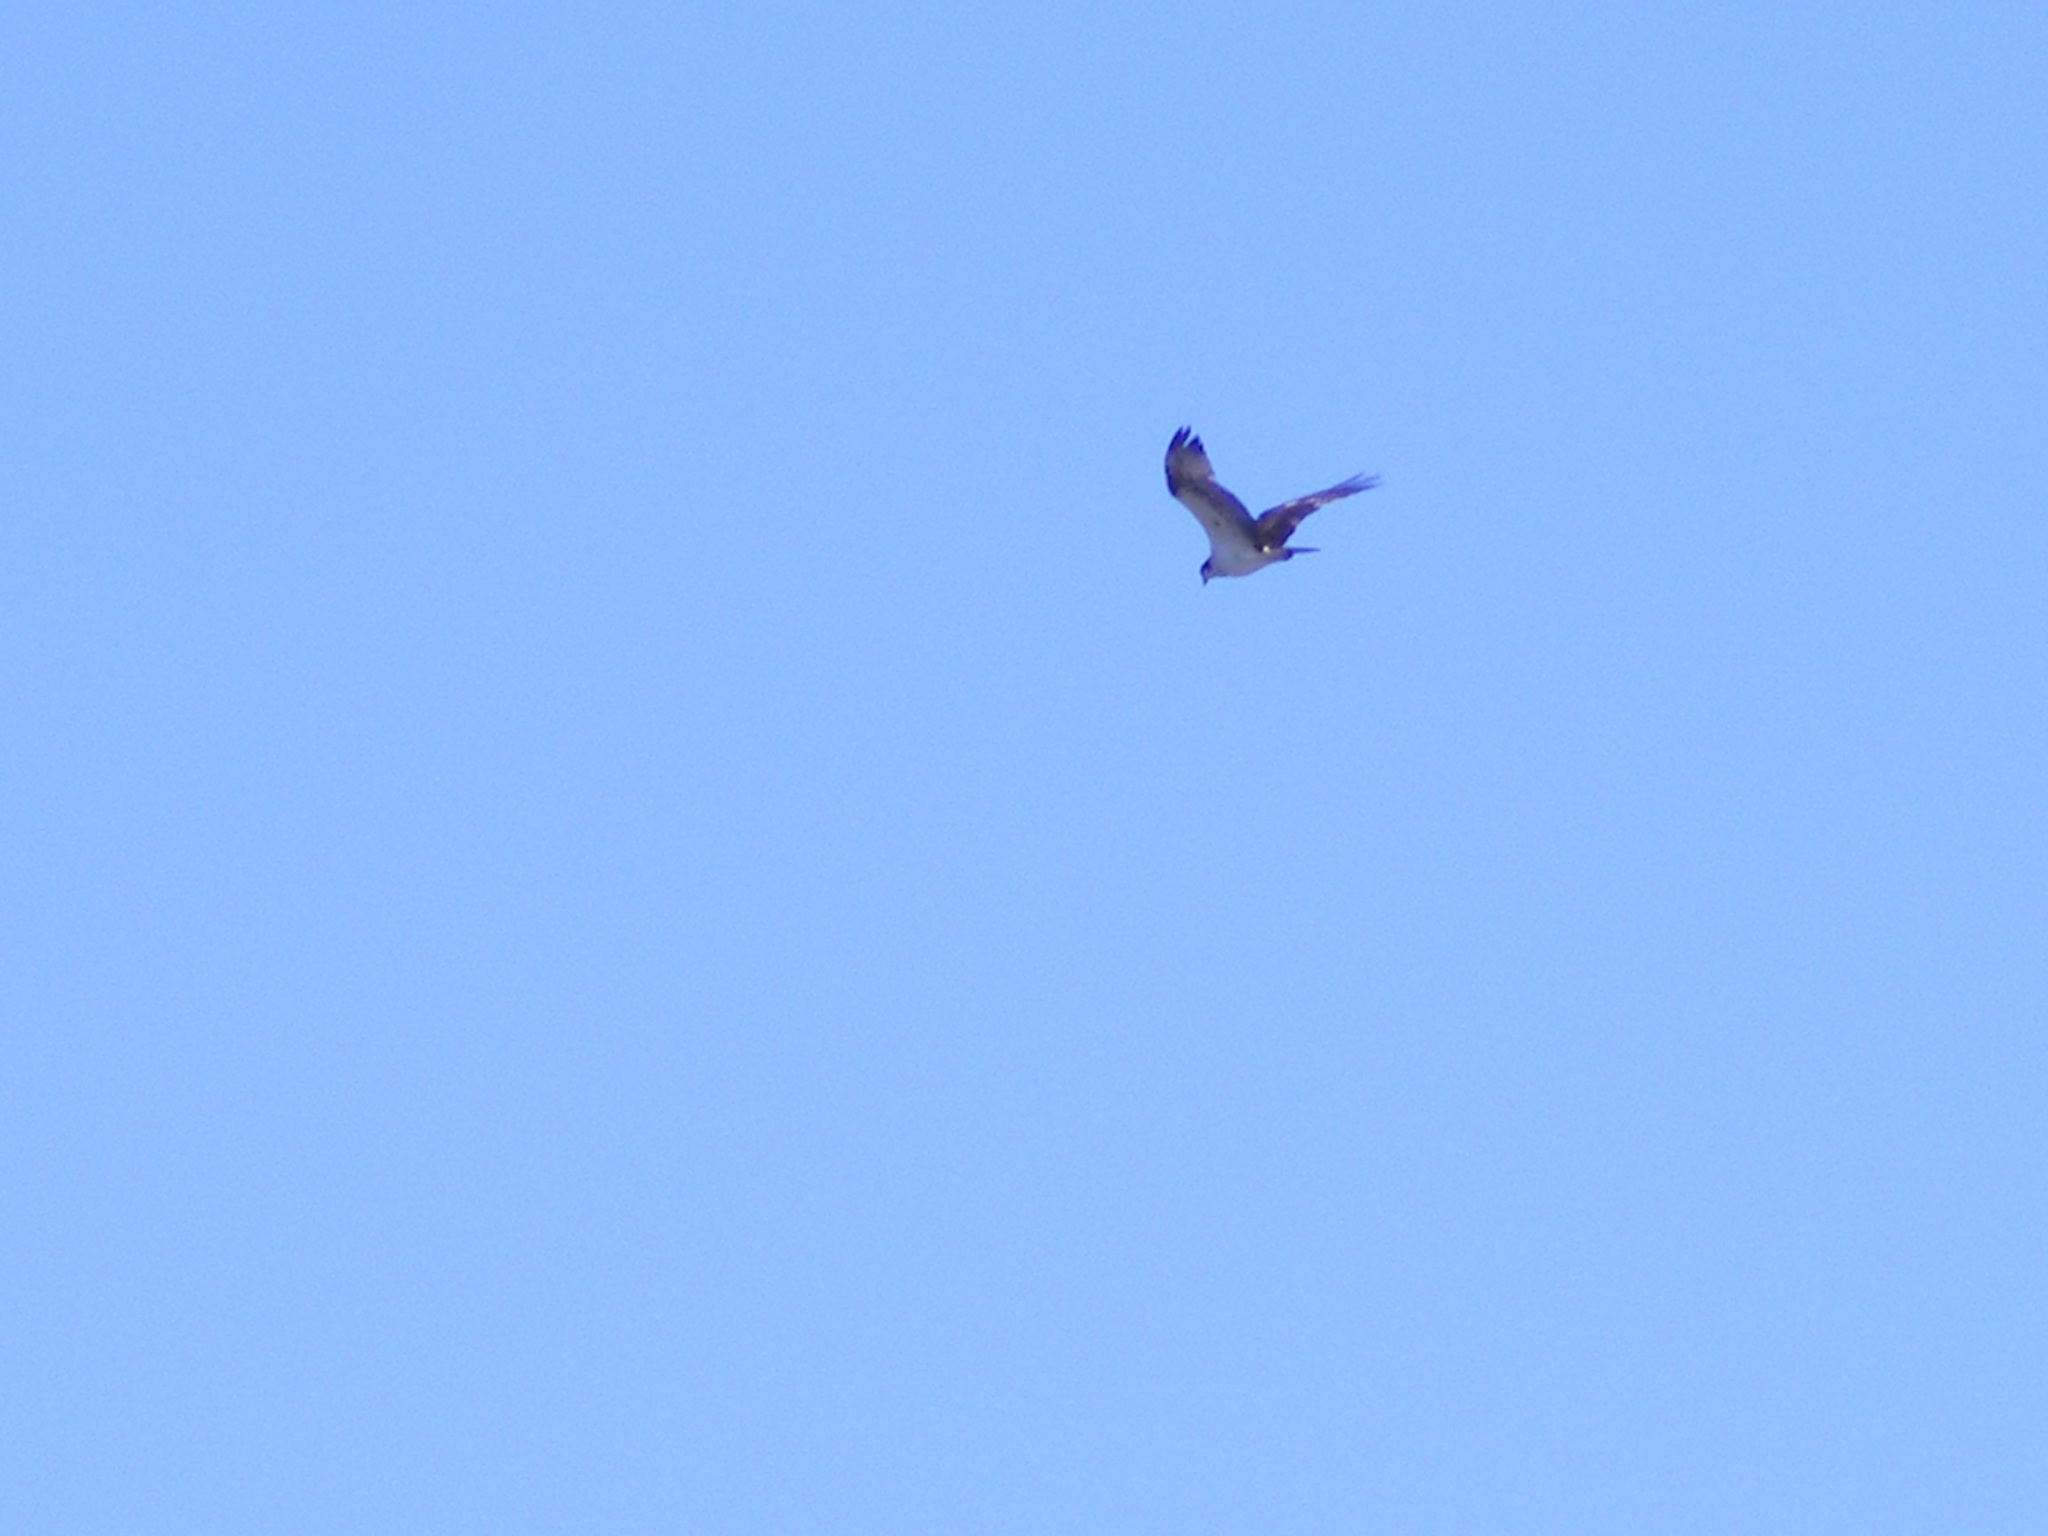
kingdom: Animalia
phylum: Chordata
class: Aves
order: Accipitriformes
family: Pandionidae
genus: Pandion
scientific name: Pandion haliaetus
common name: Osprey
